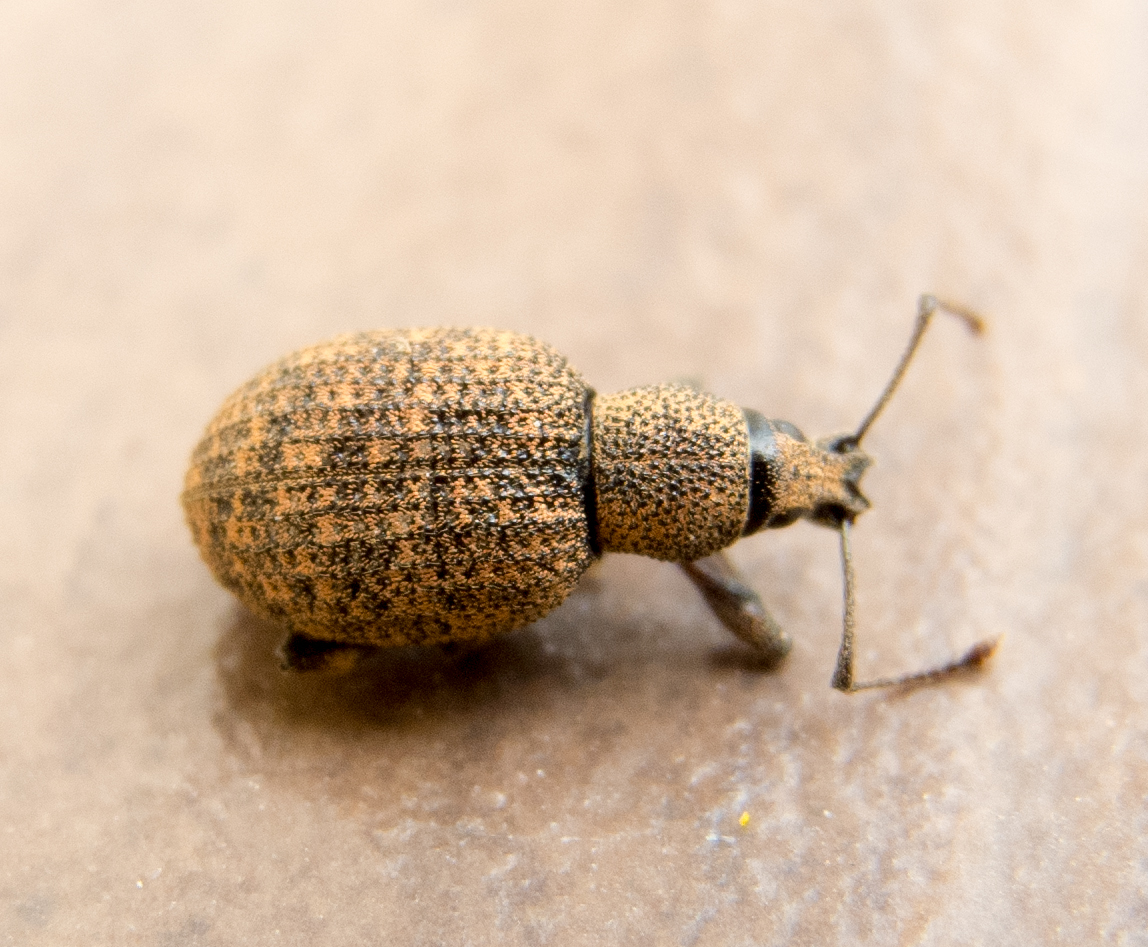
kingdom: Animalia
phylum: Arthropoda
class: Insecta
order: Coleoptera
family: Curculionidae
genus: Otiorhynchus
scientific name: Otiorhynchus simulans
